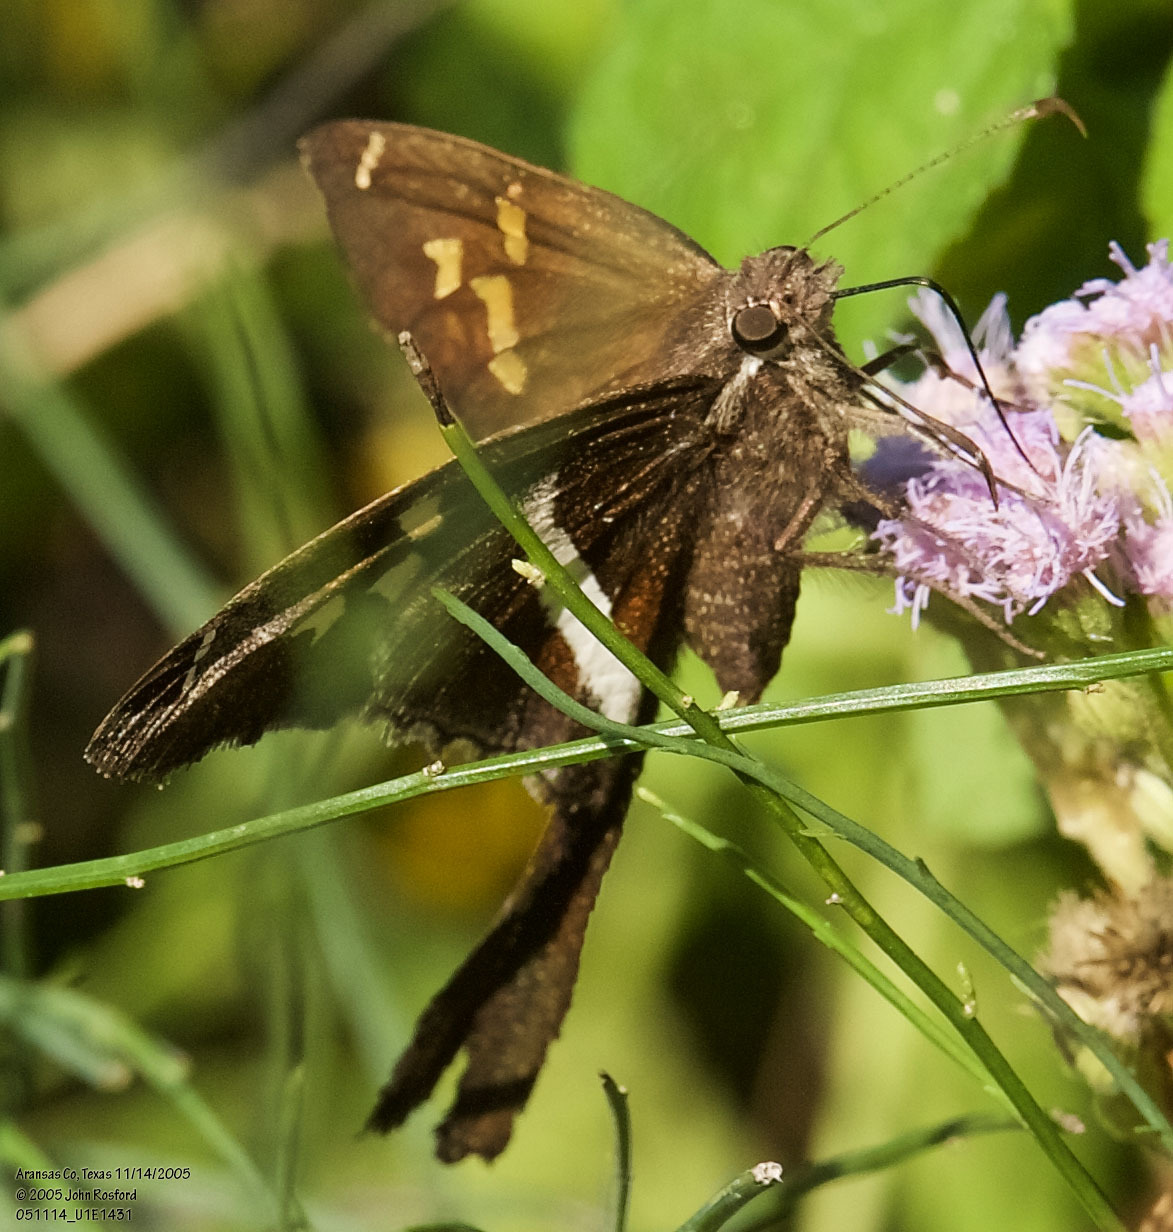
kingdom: Animalia
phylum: Arthropoda
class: Insecta
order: Lepidoptera
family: Hesperiidae
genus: Chioides
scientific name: Chioides catillus
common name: Silverbanded skipper
